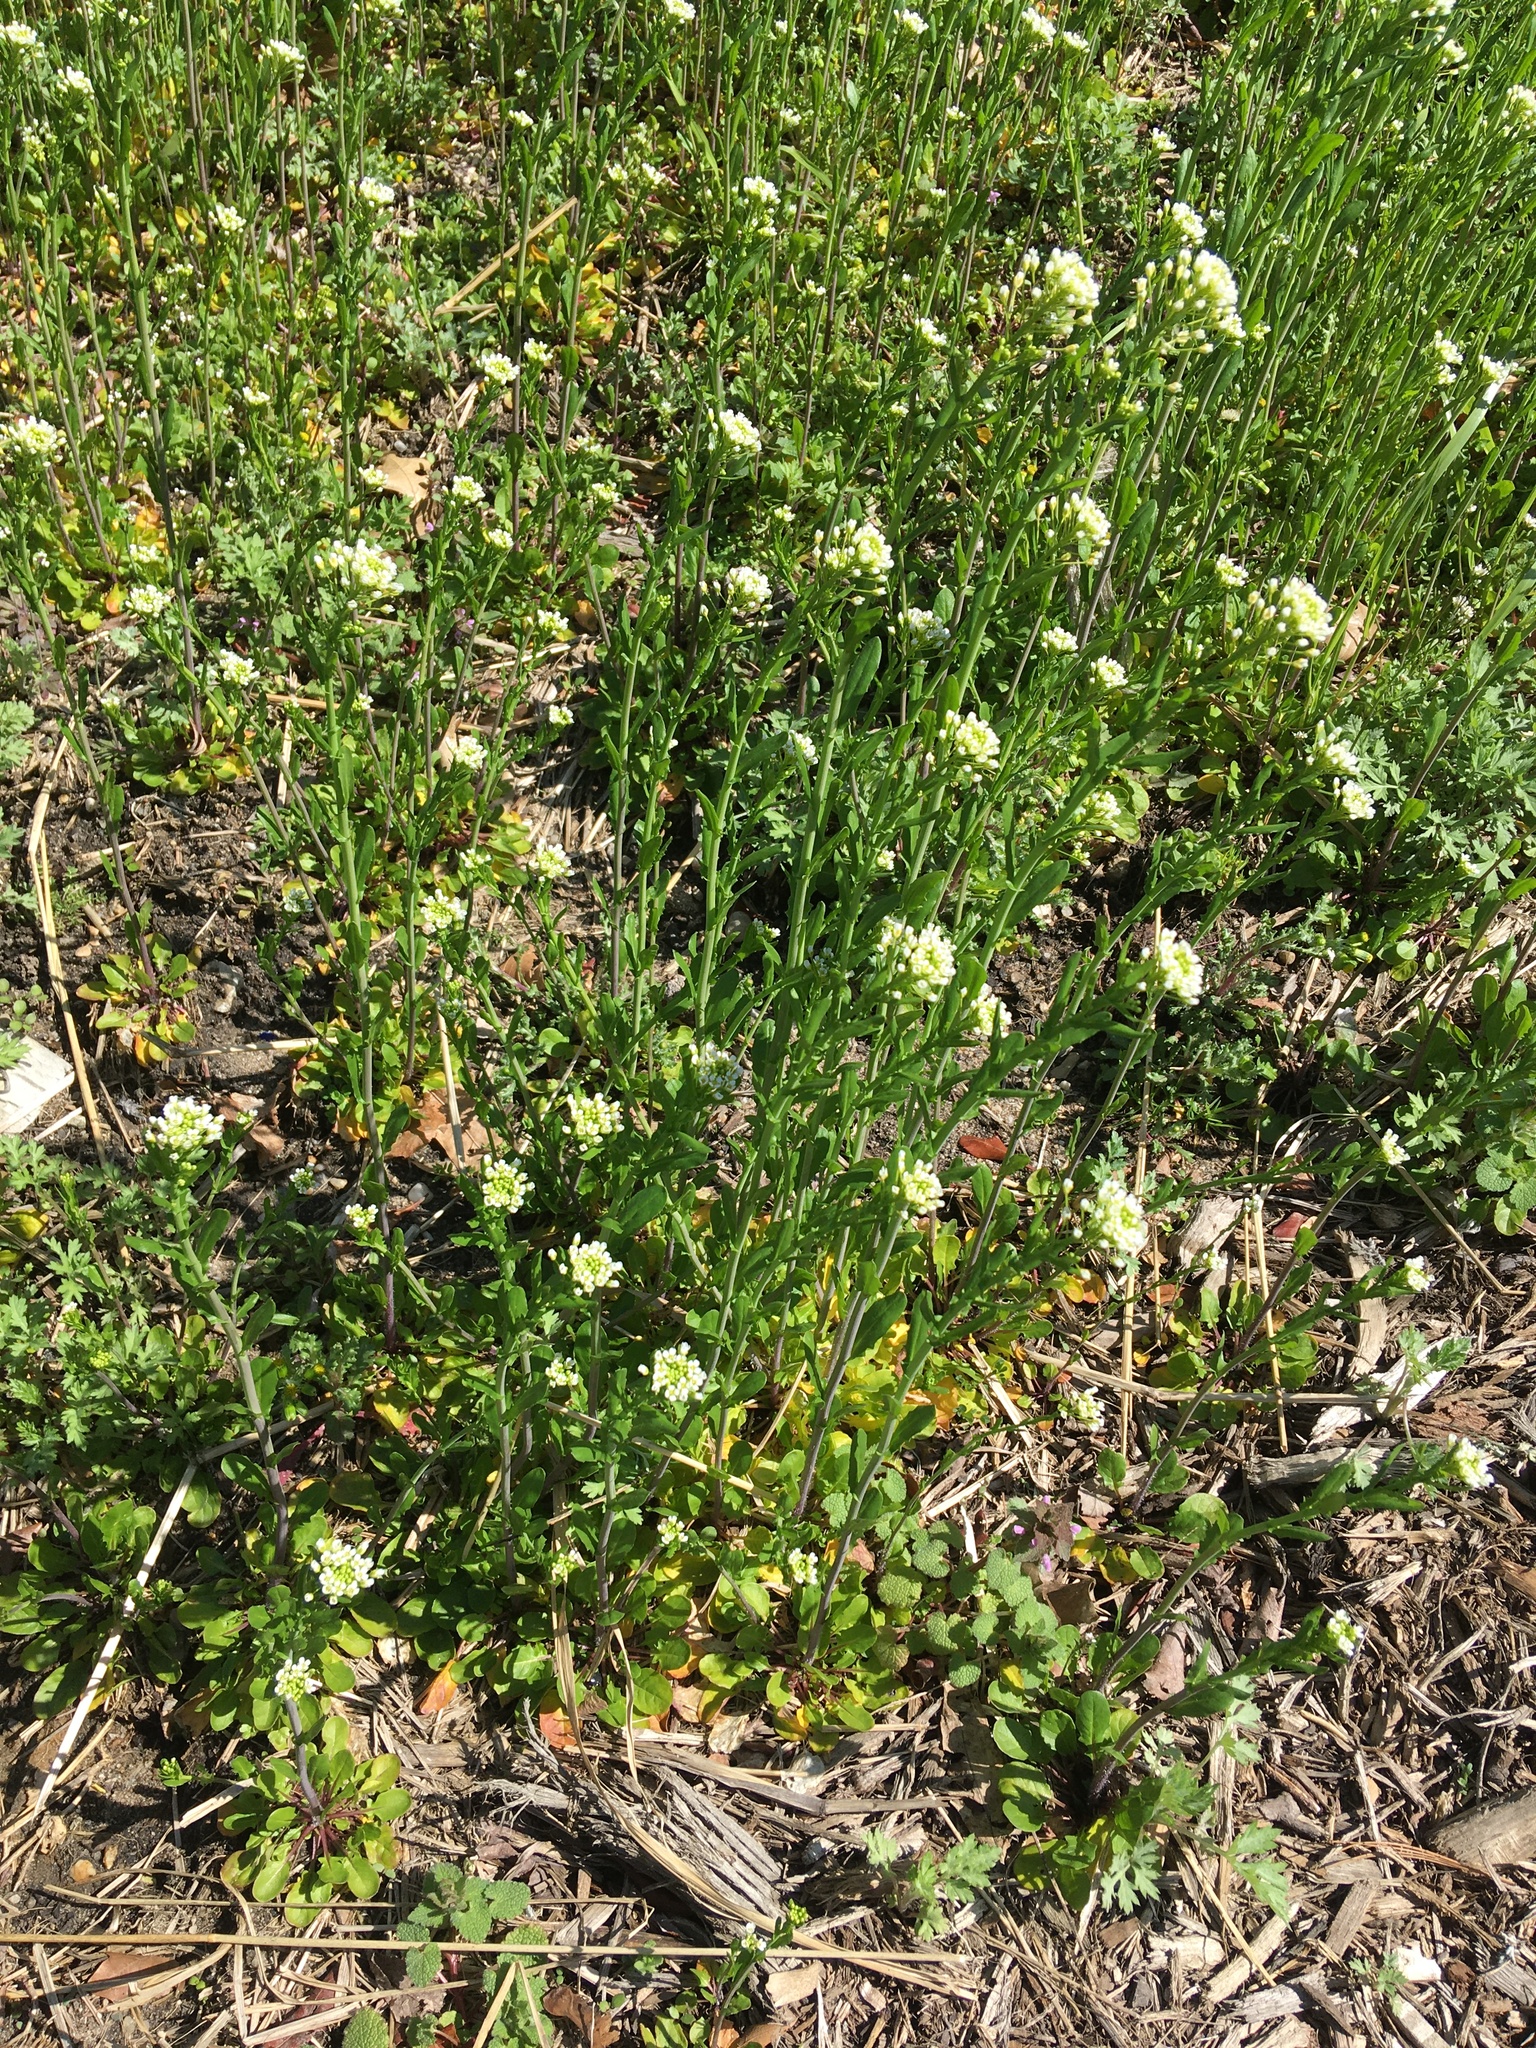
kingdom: Plantae
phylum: Tracheophyta
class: Magnoliopsida
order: Brassicales
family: Brassicaceae
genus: Mummenhoffia
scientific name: Mummenhoffia alliacea
